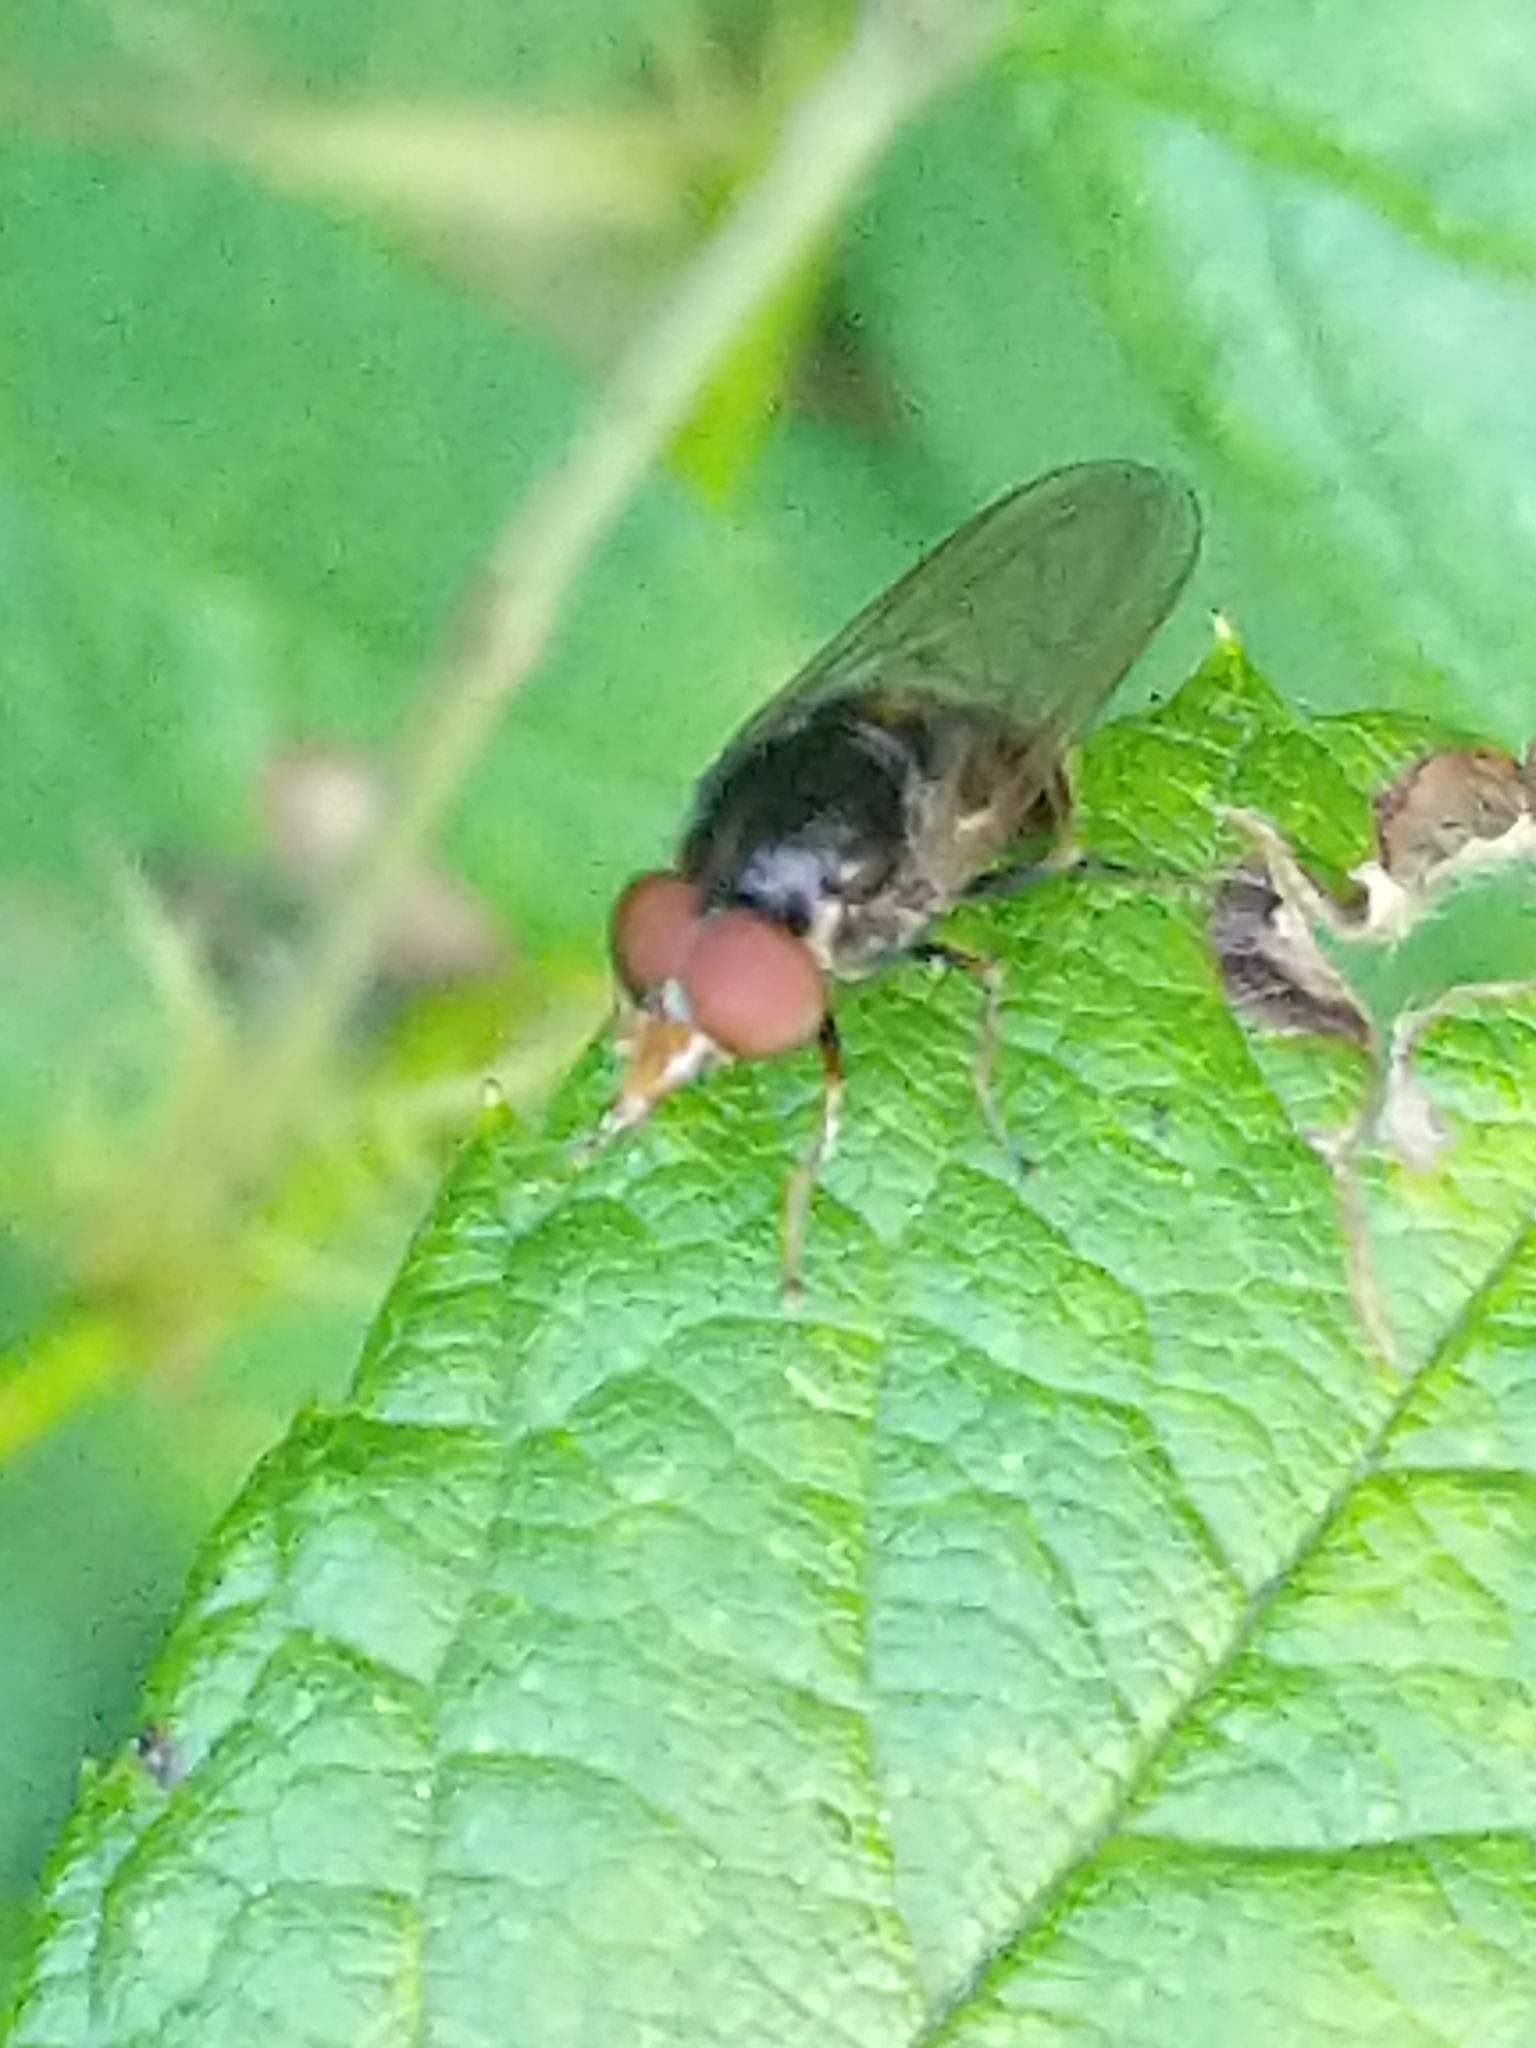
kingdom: Animalia
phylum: Arthropoda
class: Insecta
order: Diptera
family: Syrphidae
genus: Rhingia
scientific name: Rhingia nasica
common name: American snout fly
